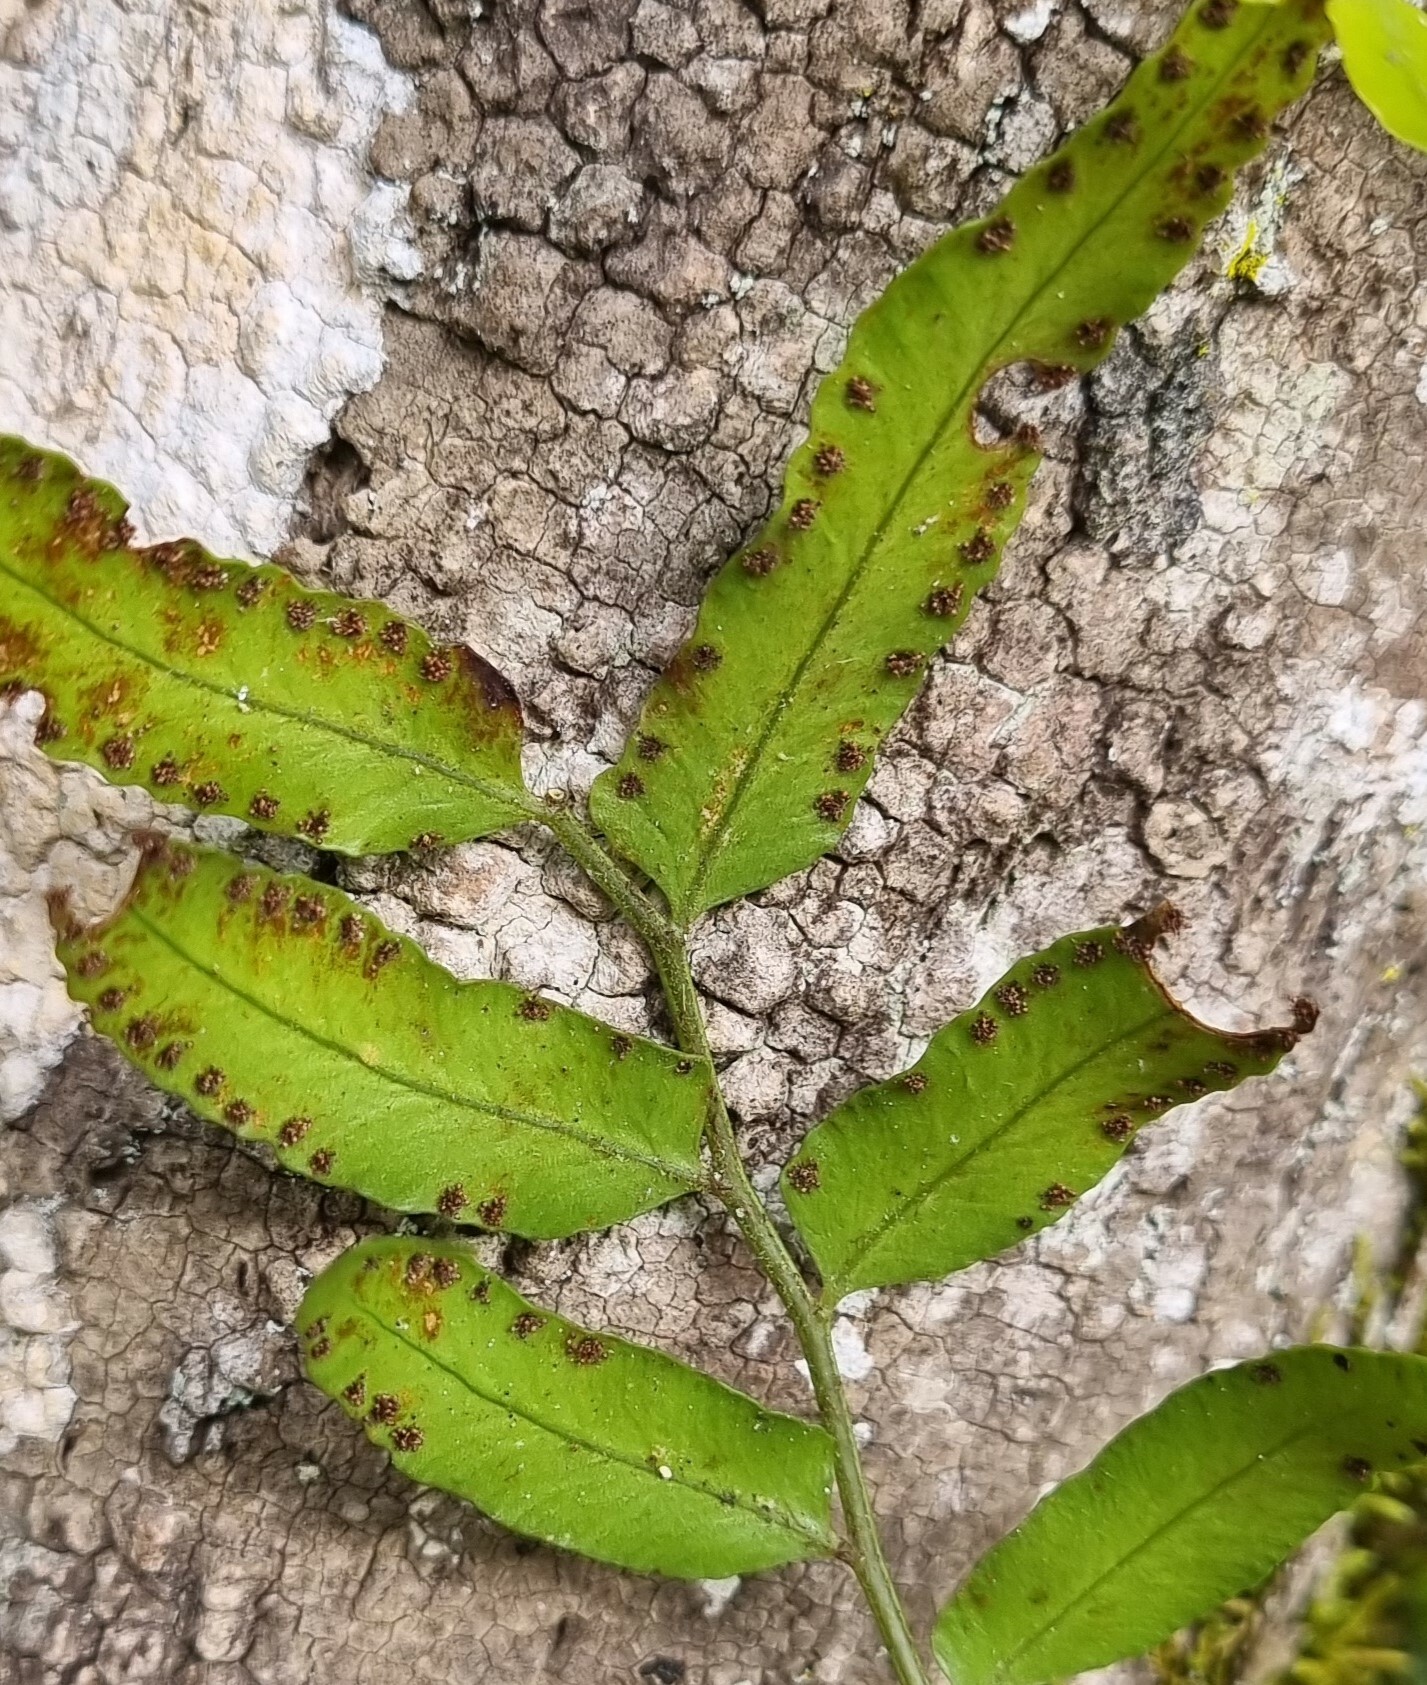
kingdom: Plantae
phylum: Tracheophyta
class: Polypodiopsida
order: Polypodiales
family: Tectariaceae
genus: Arthropteris
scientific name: Arthropteris tenella
